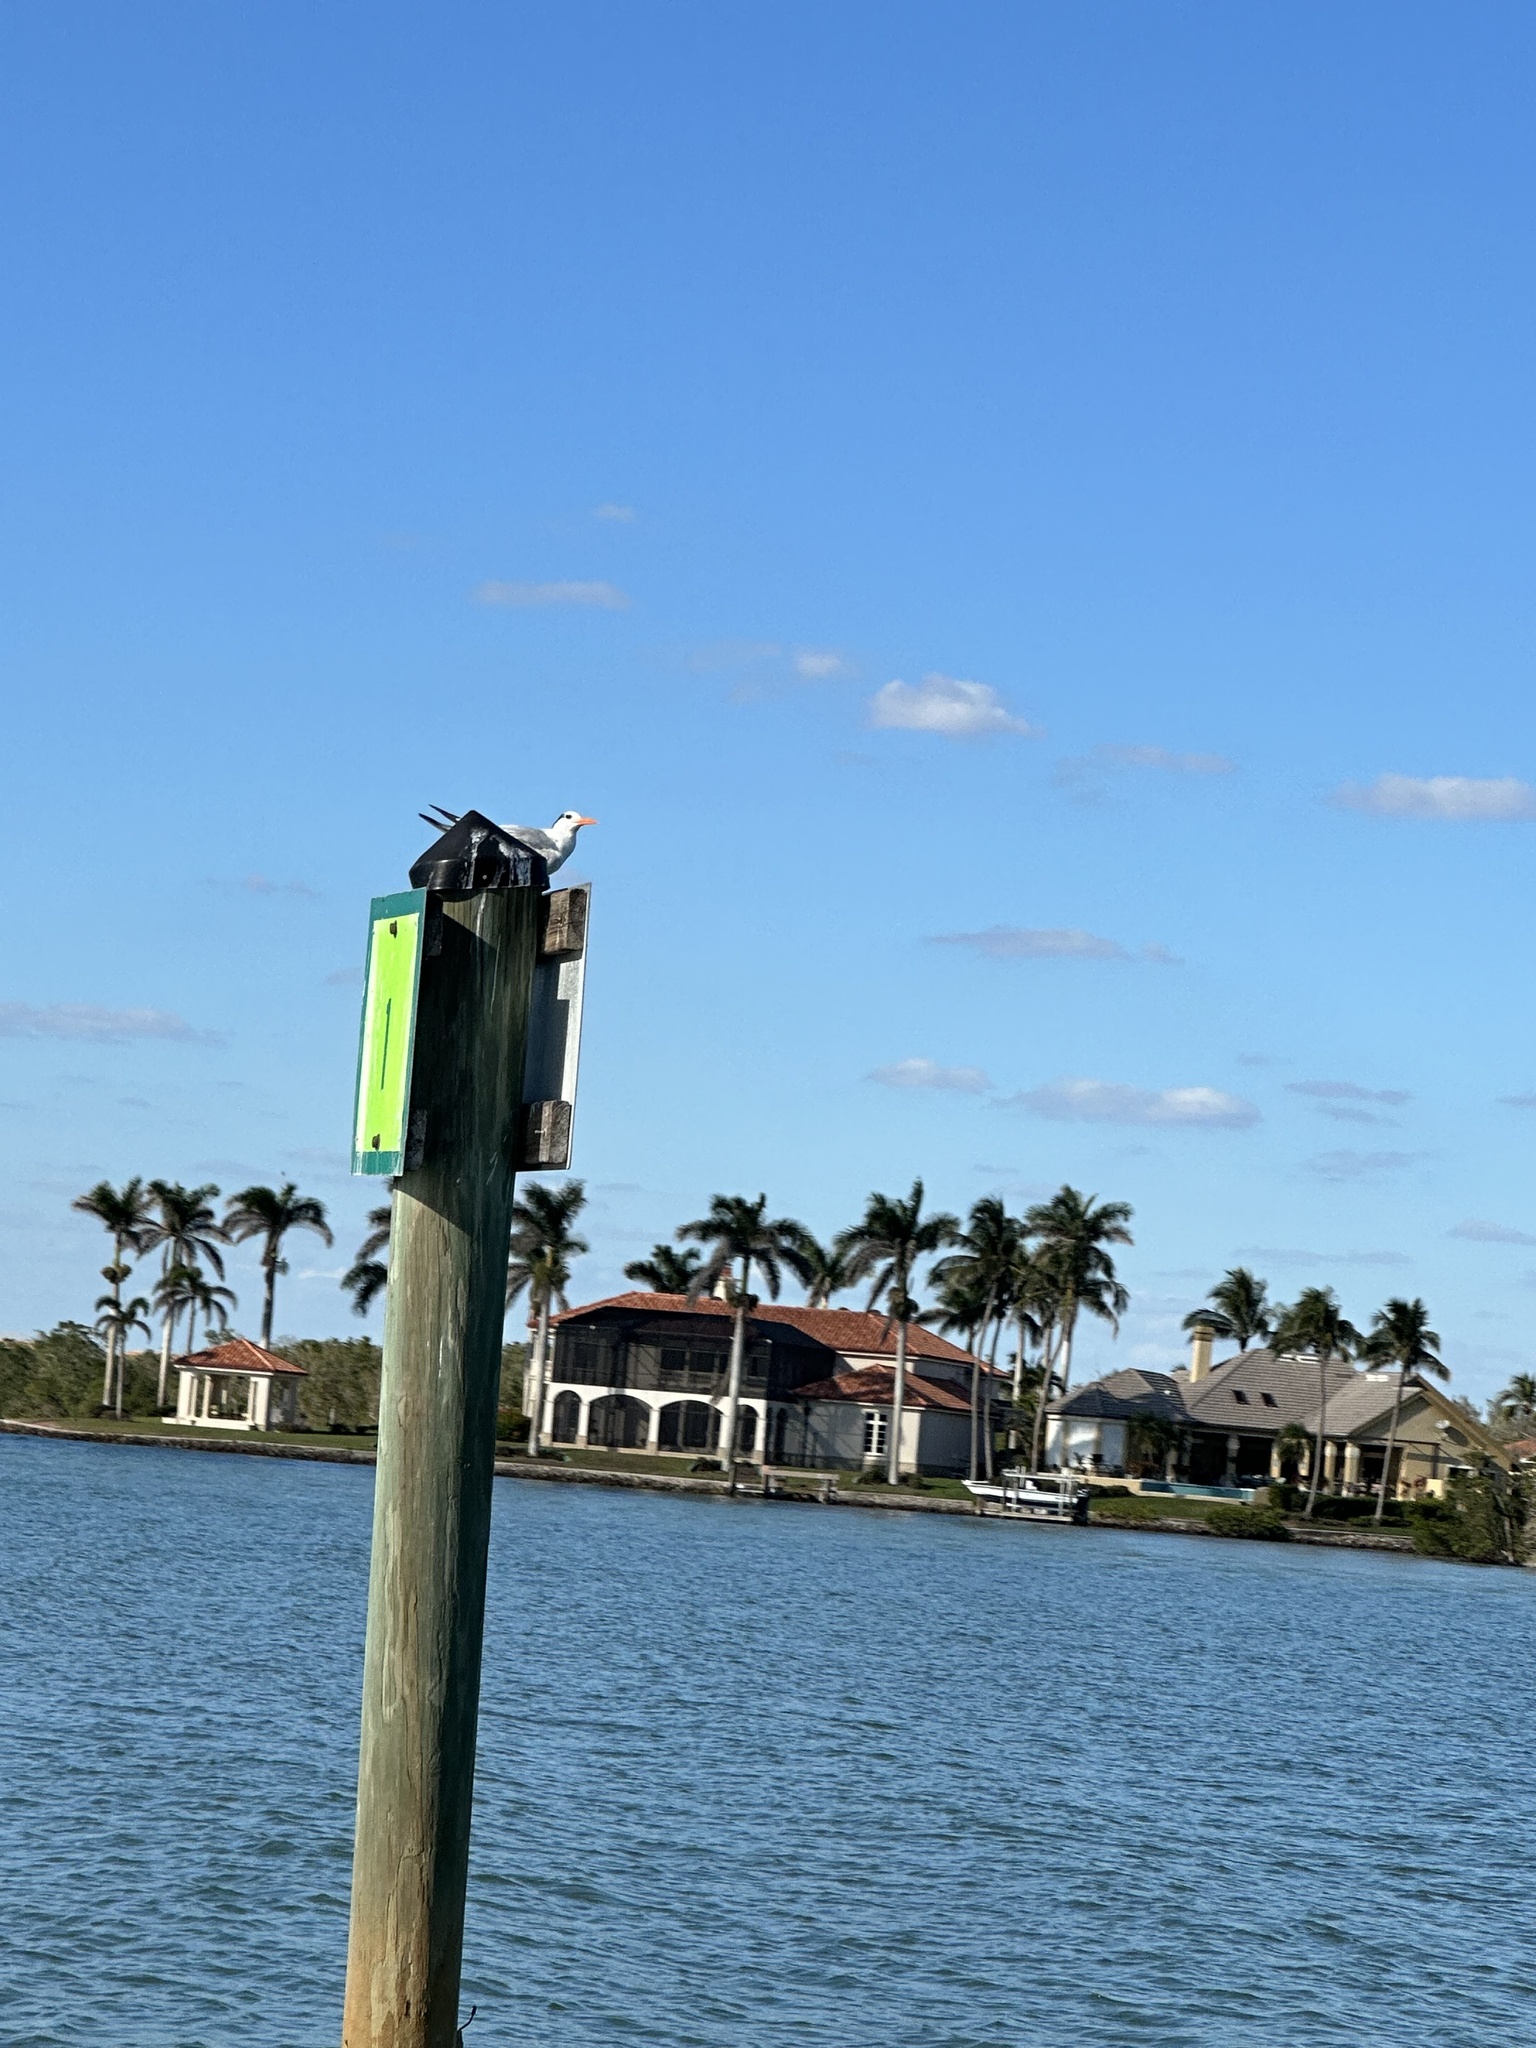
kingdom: Animalia
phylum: Chordata
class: Aves
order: Charadriiformes
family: Laridae
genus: Thalasseus
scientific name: Thalasseus maximus
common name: Royal tern
